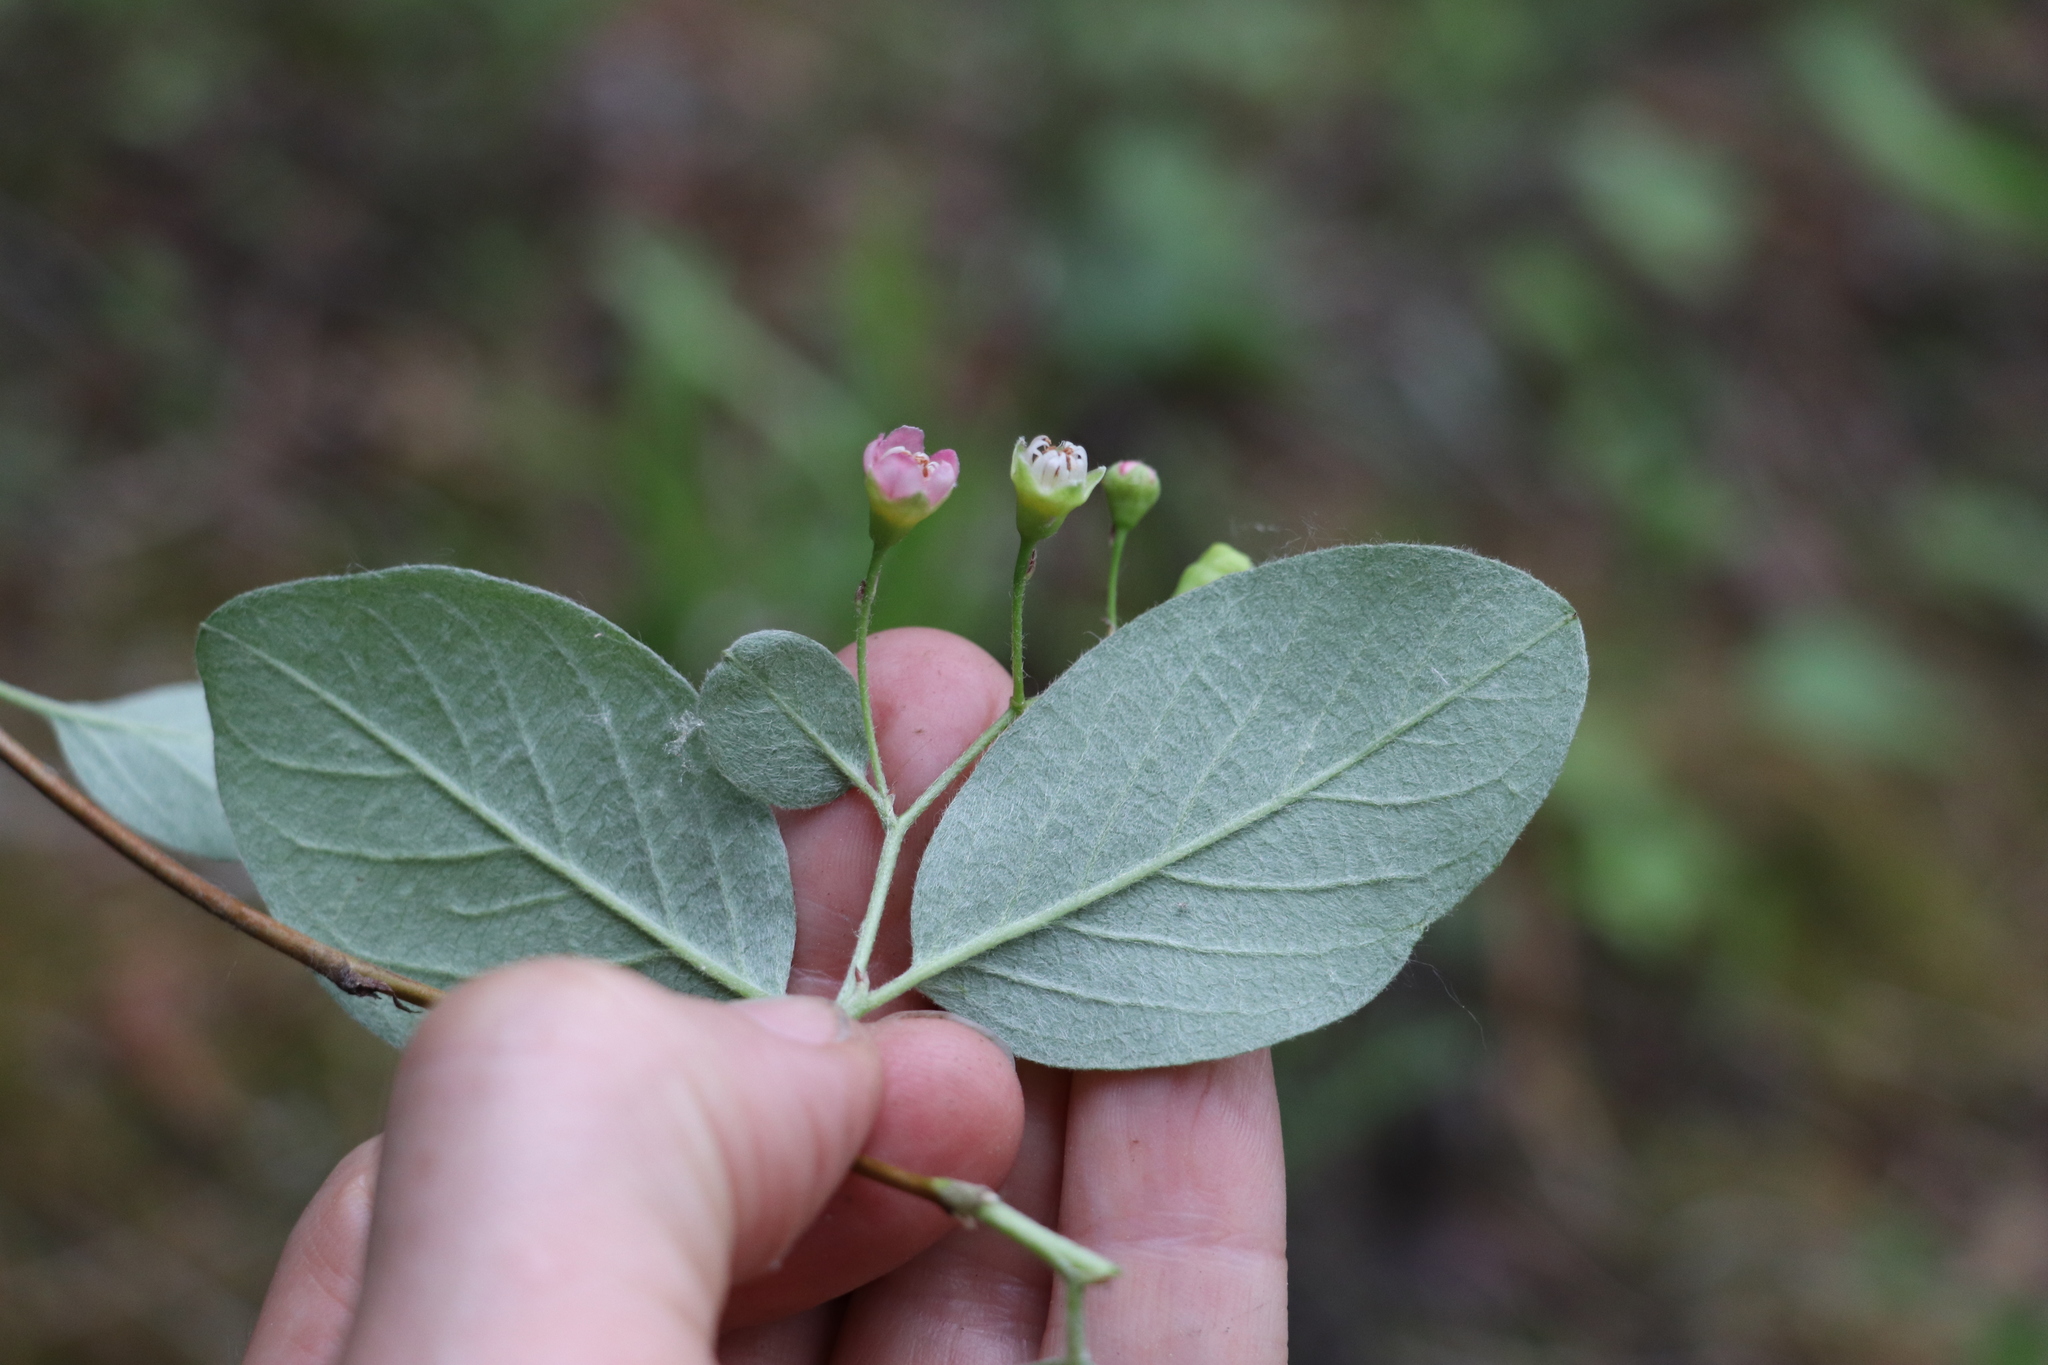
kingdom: Plantae
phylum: Tracheophyta
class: Magnoliopsida
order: Rosales
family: Rosaceae
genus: Cotoneaster
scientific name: Cotoneaster melanocarpus
